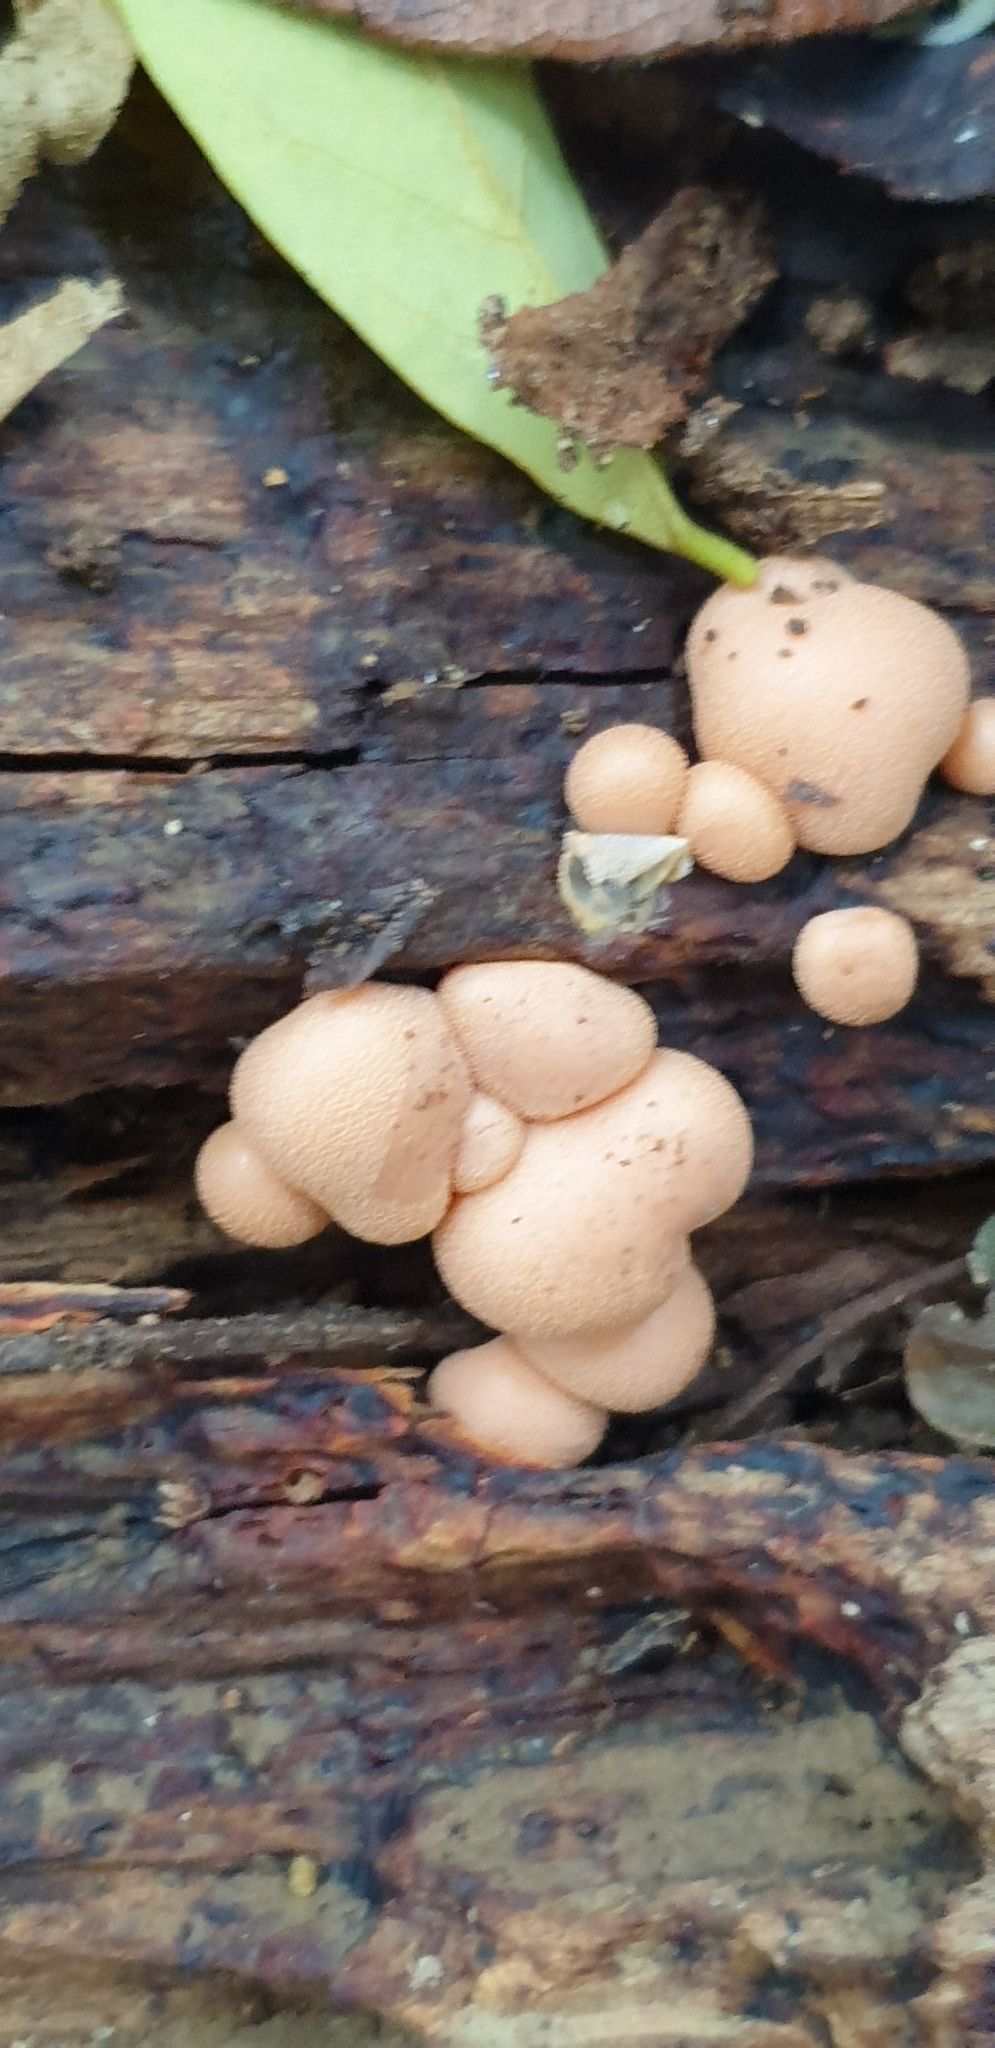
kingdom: Protozoa
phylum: Mycetozoa
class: Myxomycetes
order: Cribrariales
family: Tubiferaceae
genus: Lycogala
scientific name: Lycogala epidendrum
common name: Wolf's milk
